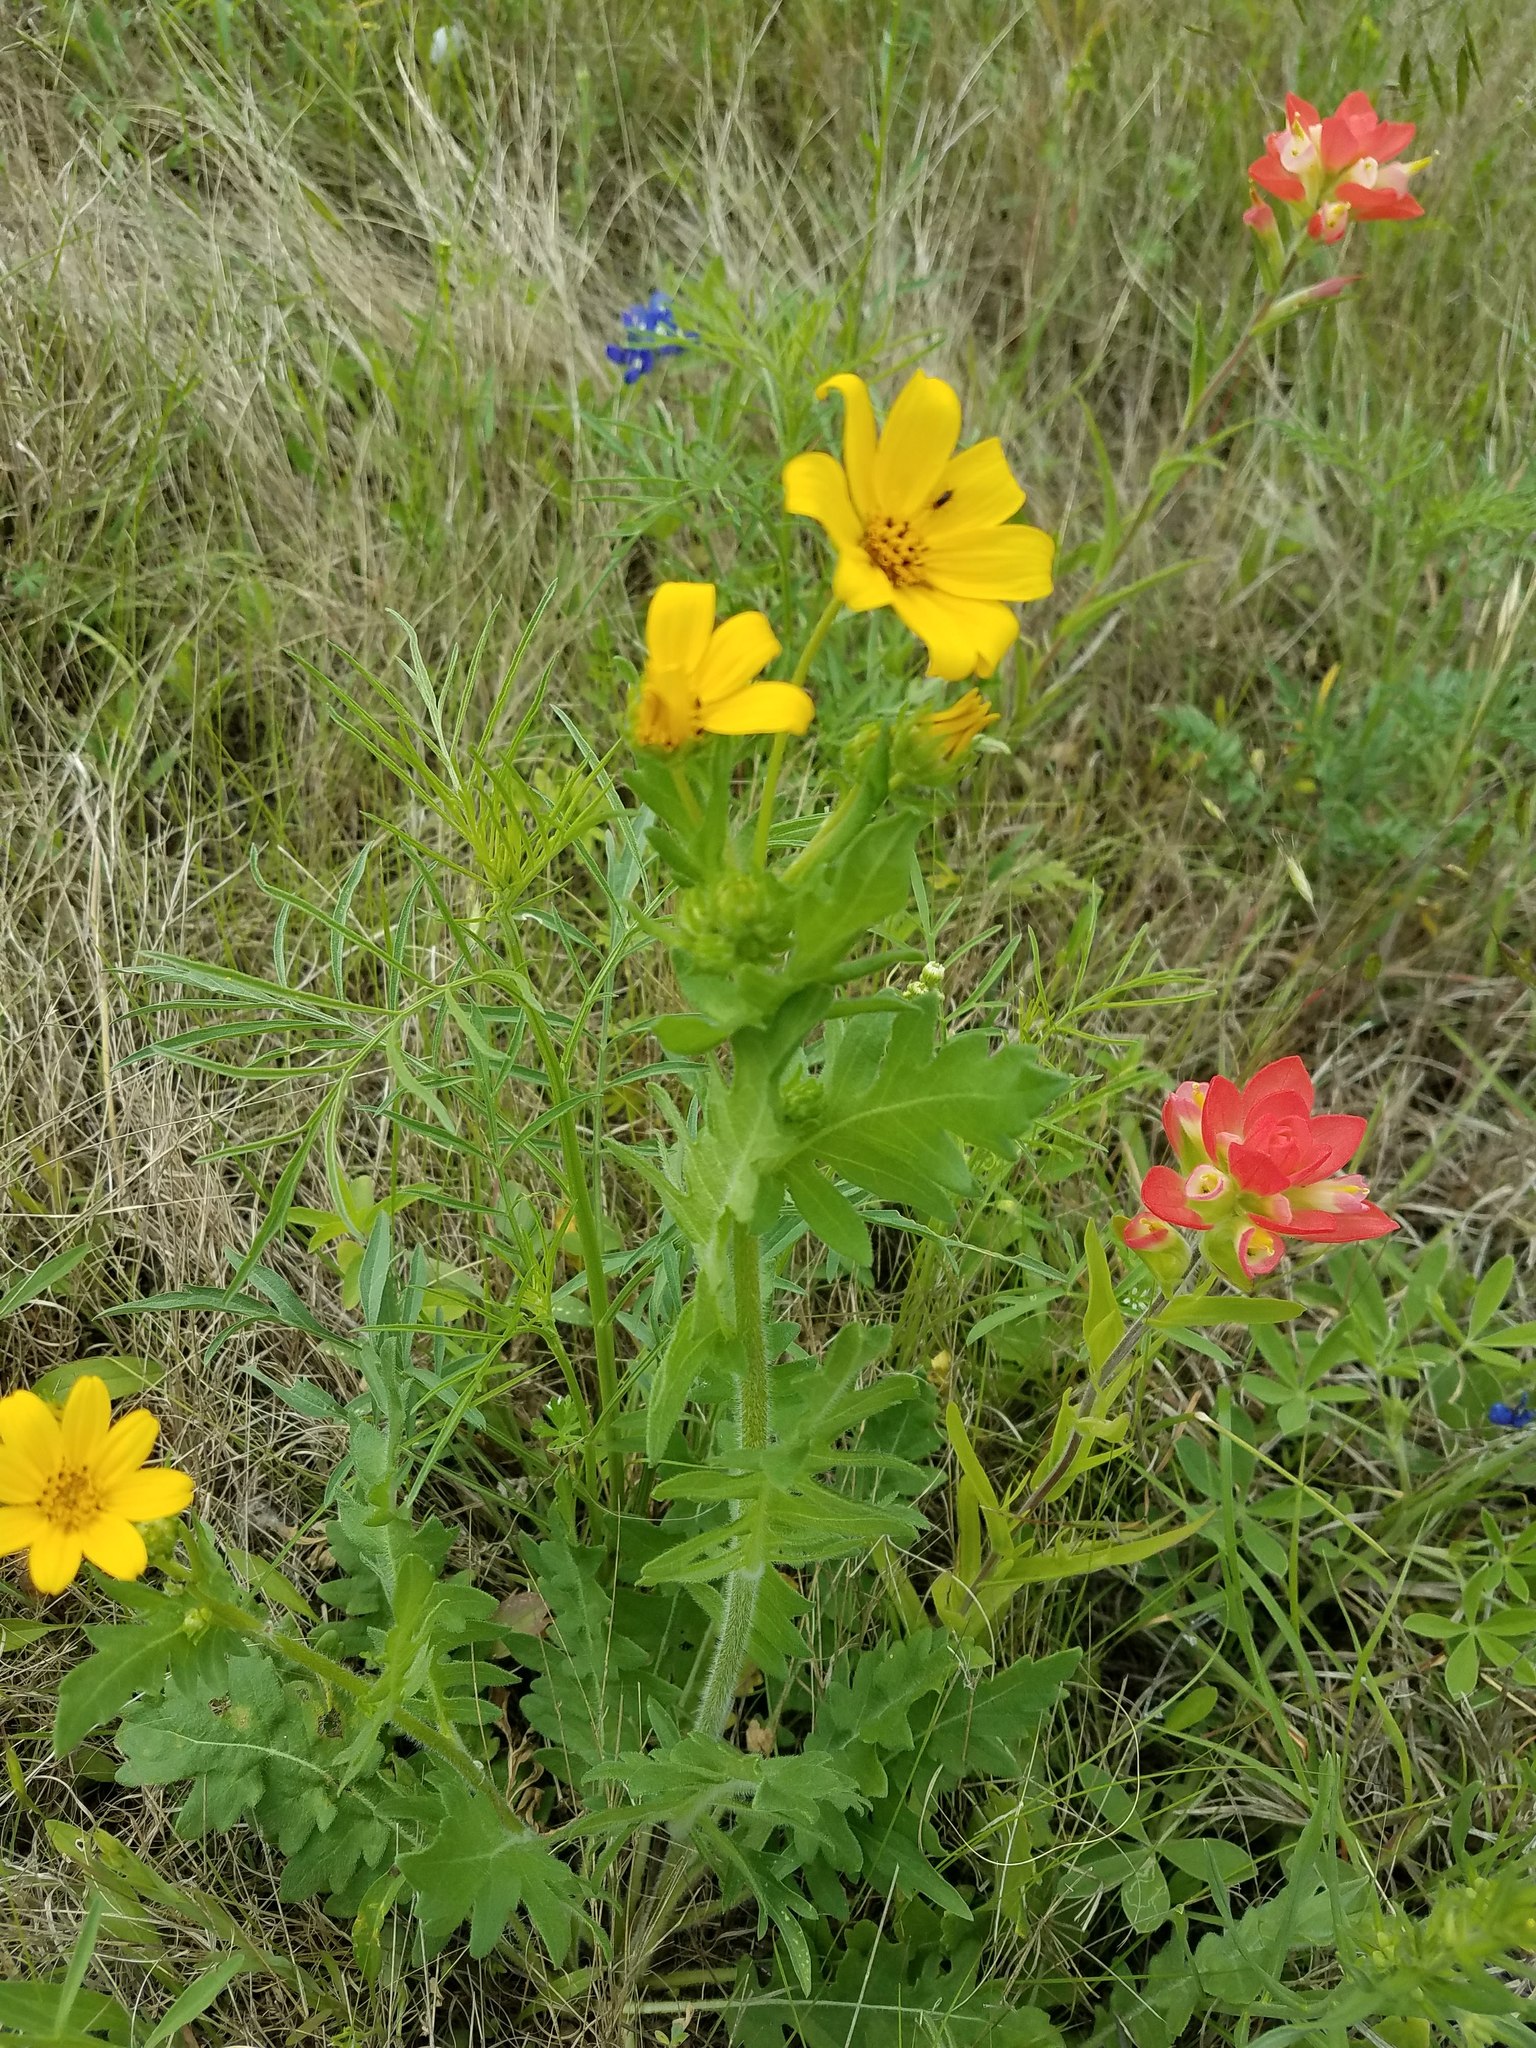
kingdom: Plantae
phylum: Tracheophyta
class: Magnoliopsida
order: Asterales
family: Asteraceae
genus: Engelmannia
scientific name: Engelmannia peristenia
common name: Engelmann's daisy
